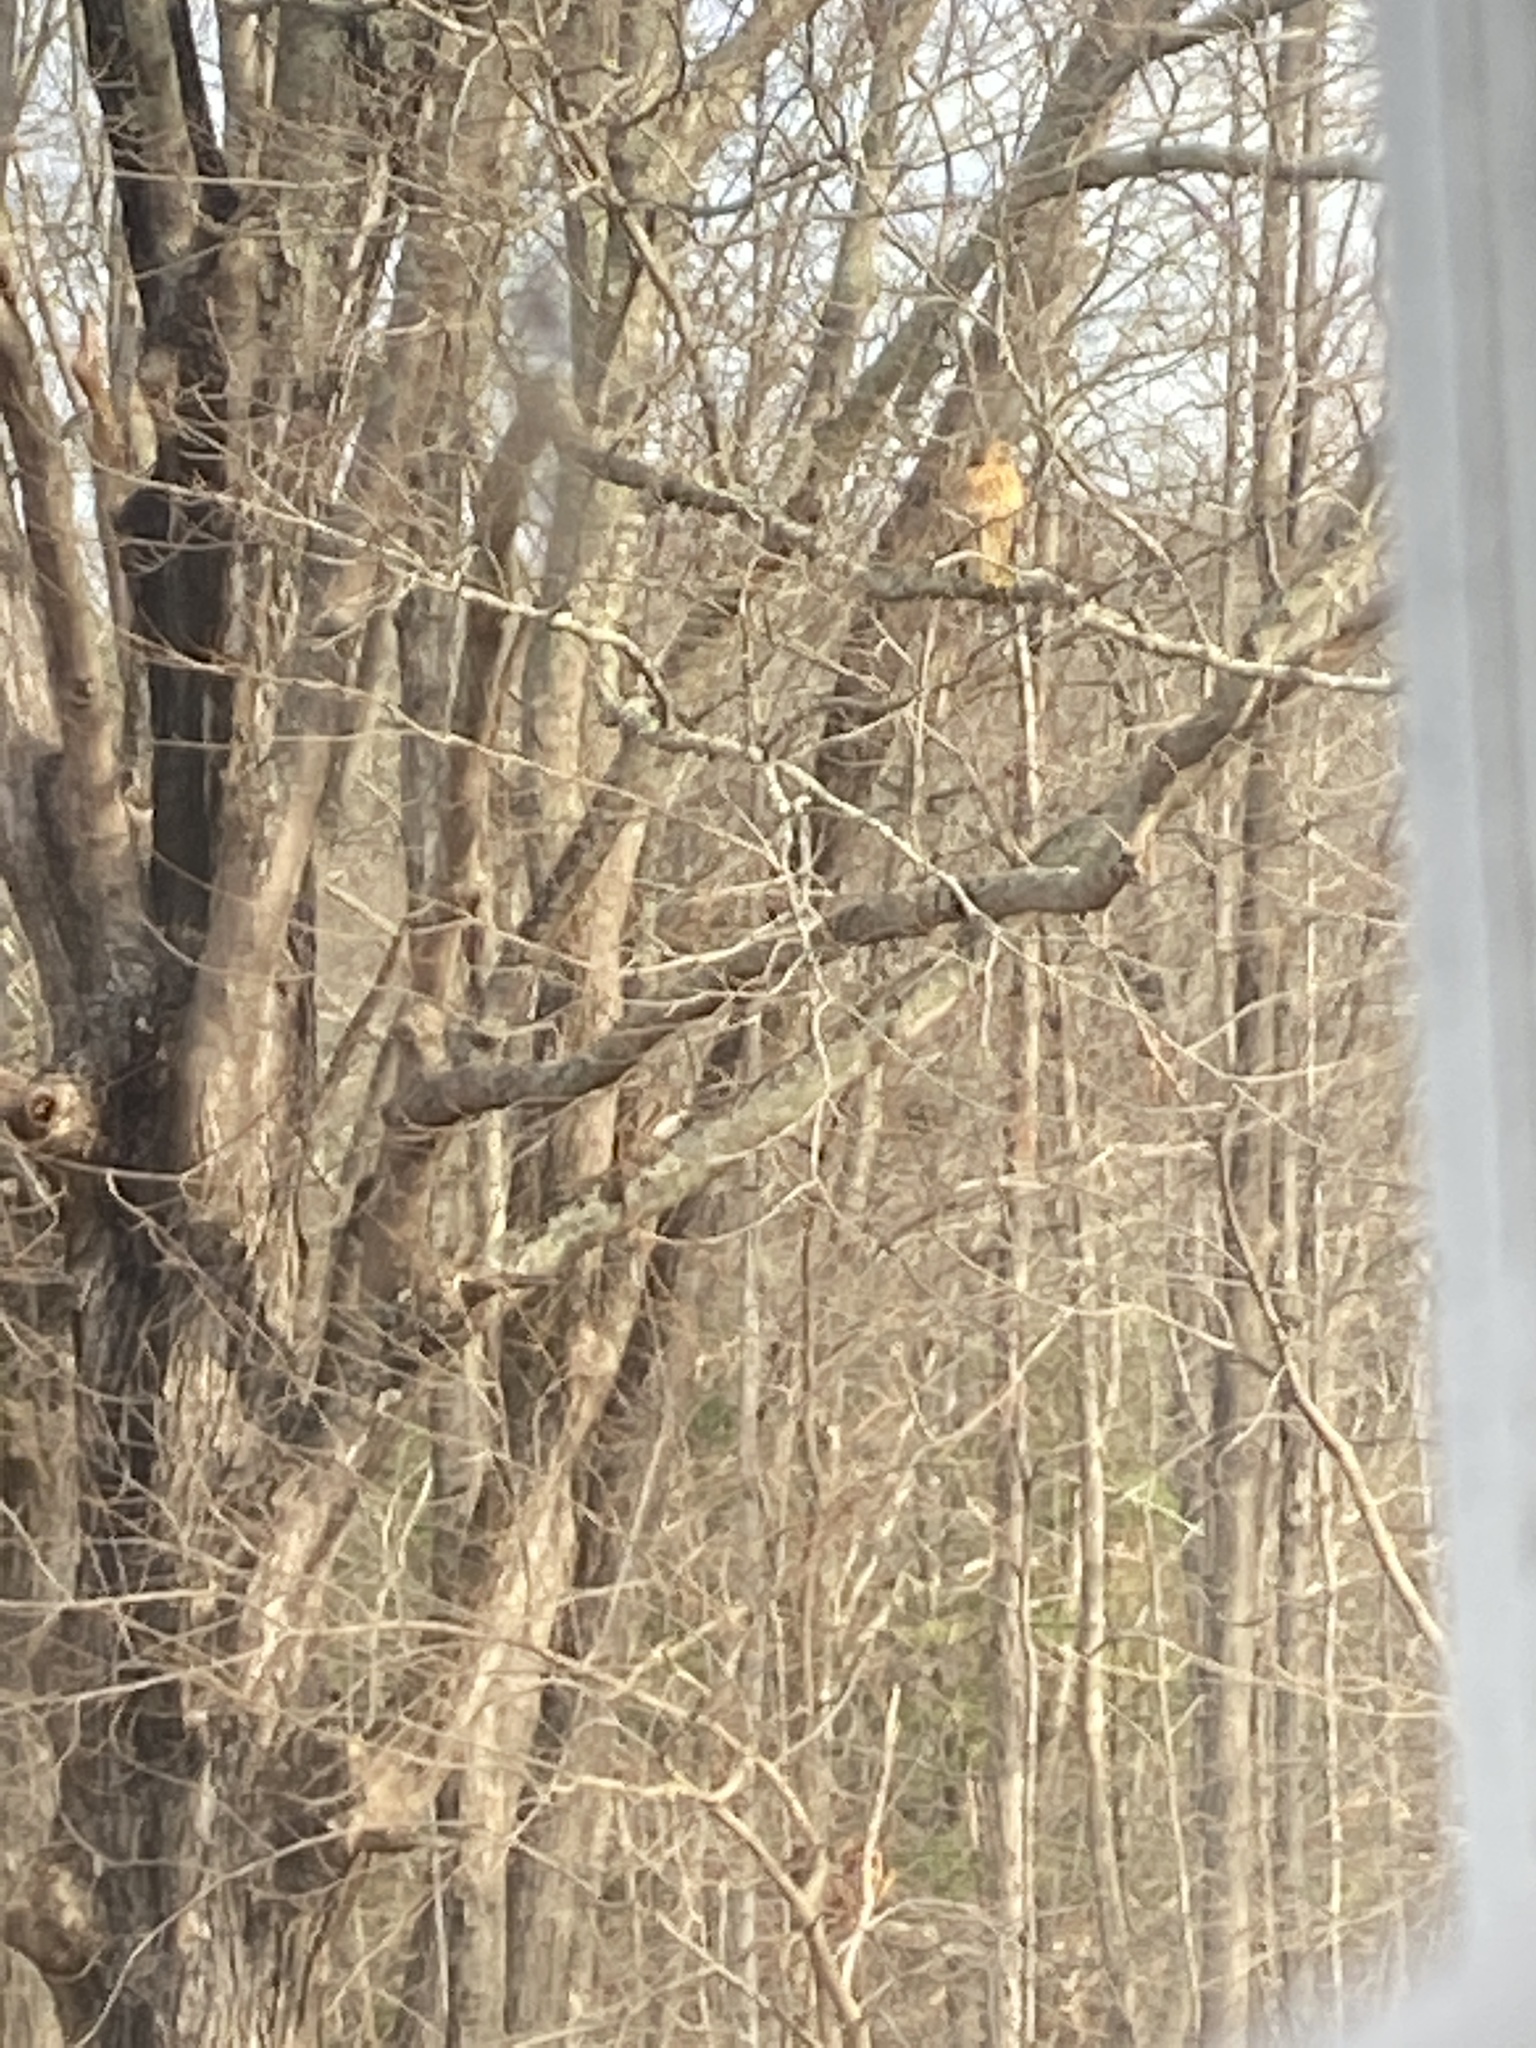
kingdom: Animalia
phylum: Chordata
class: Aves
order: Accipitriformes
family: Accipitridae
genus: Buteo
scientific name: Buteo jamaicensis
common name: Red-tailed hawk
